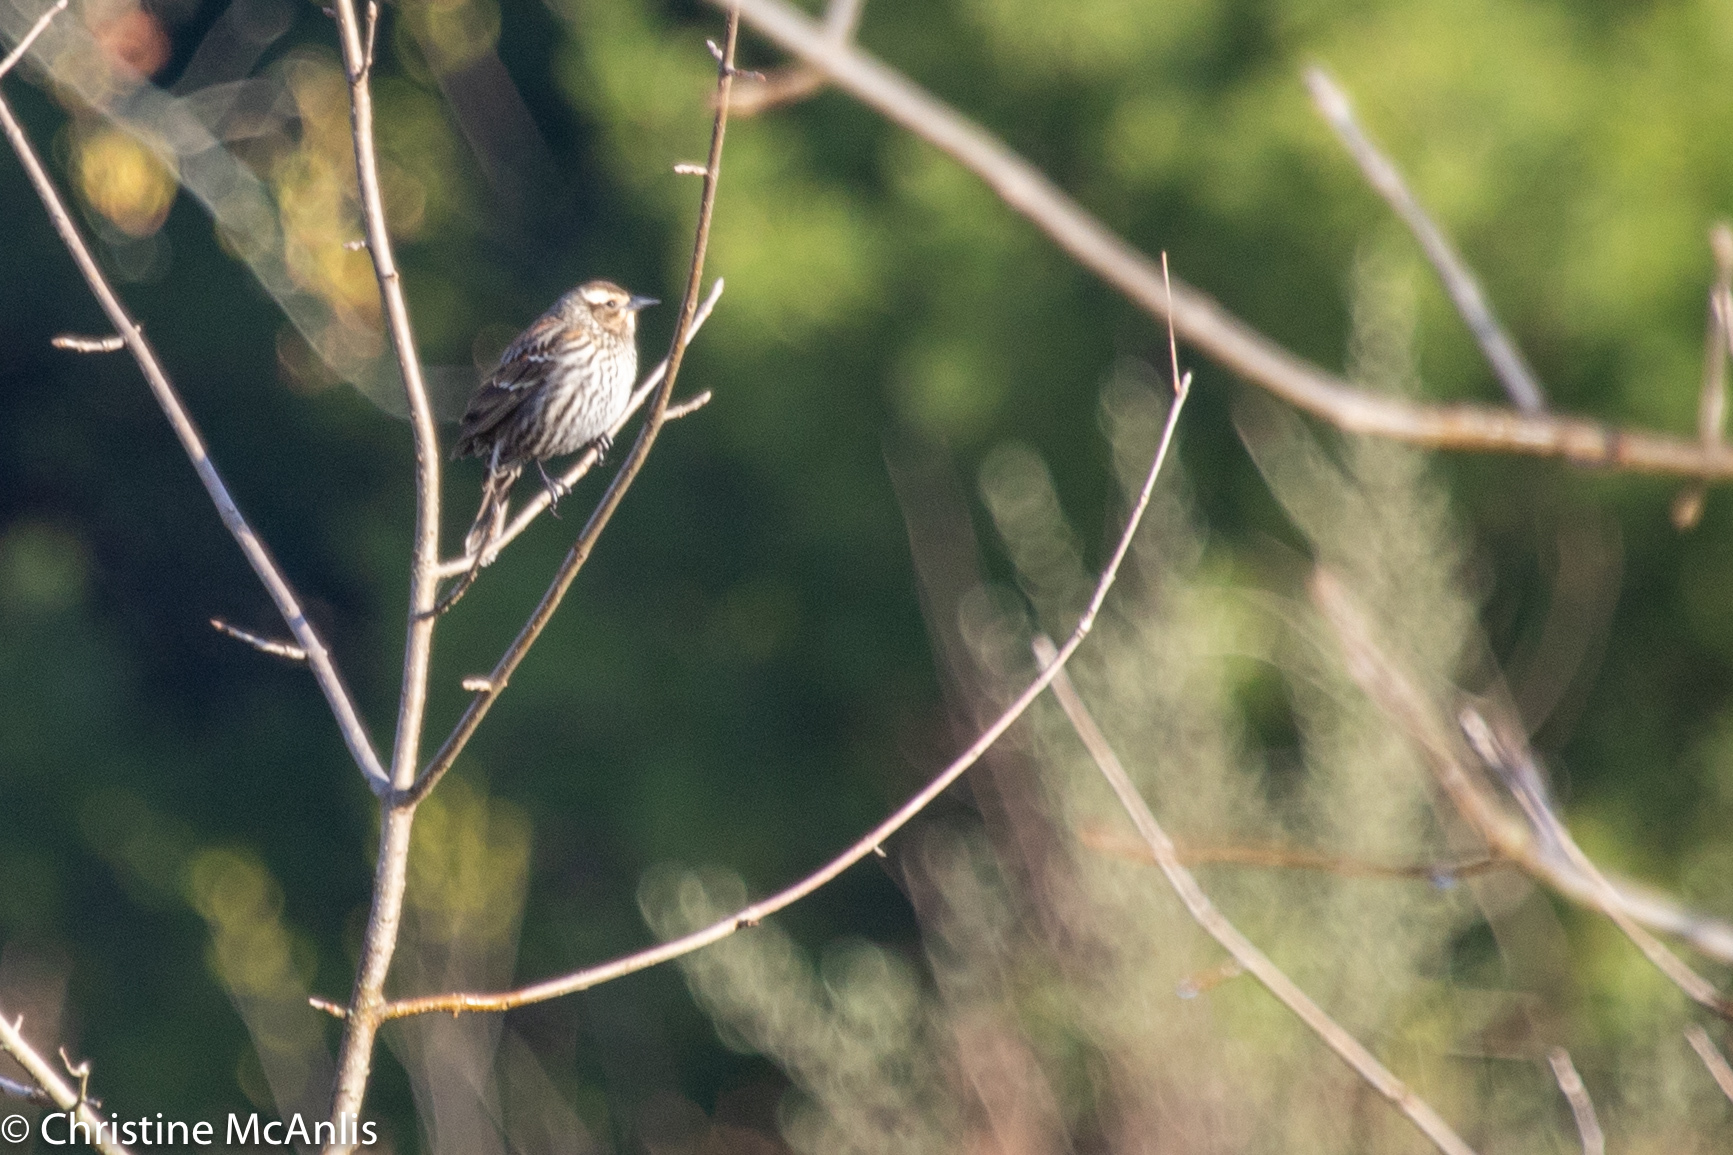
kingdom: Animalia
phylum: Chordata
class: Aves
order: Passeriformes
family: Icteridae
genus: Agelaius
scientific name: Agelaius phoeniceus
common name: Red-winged blackbird
